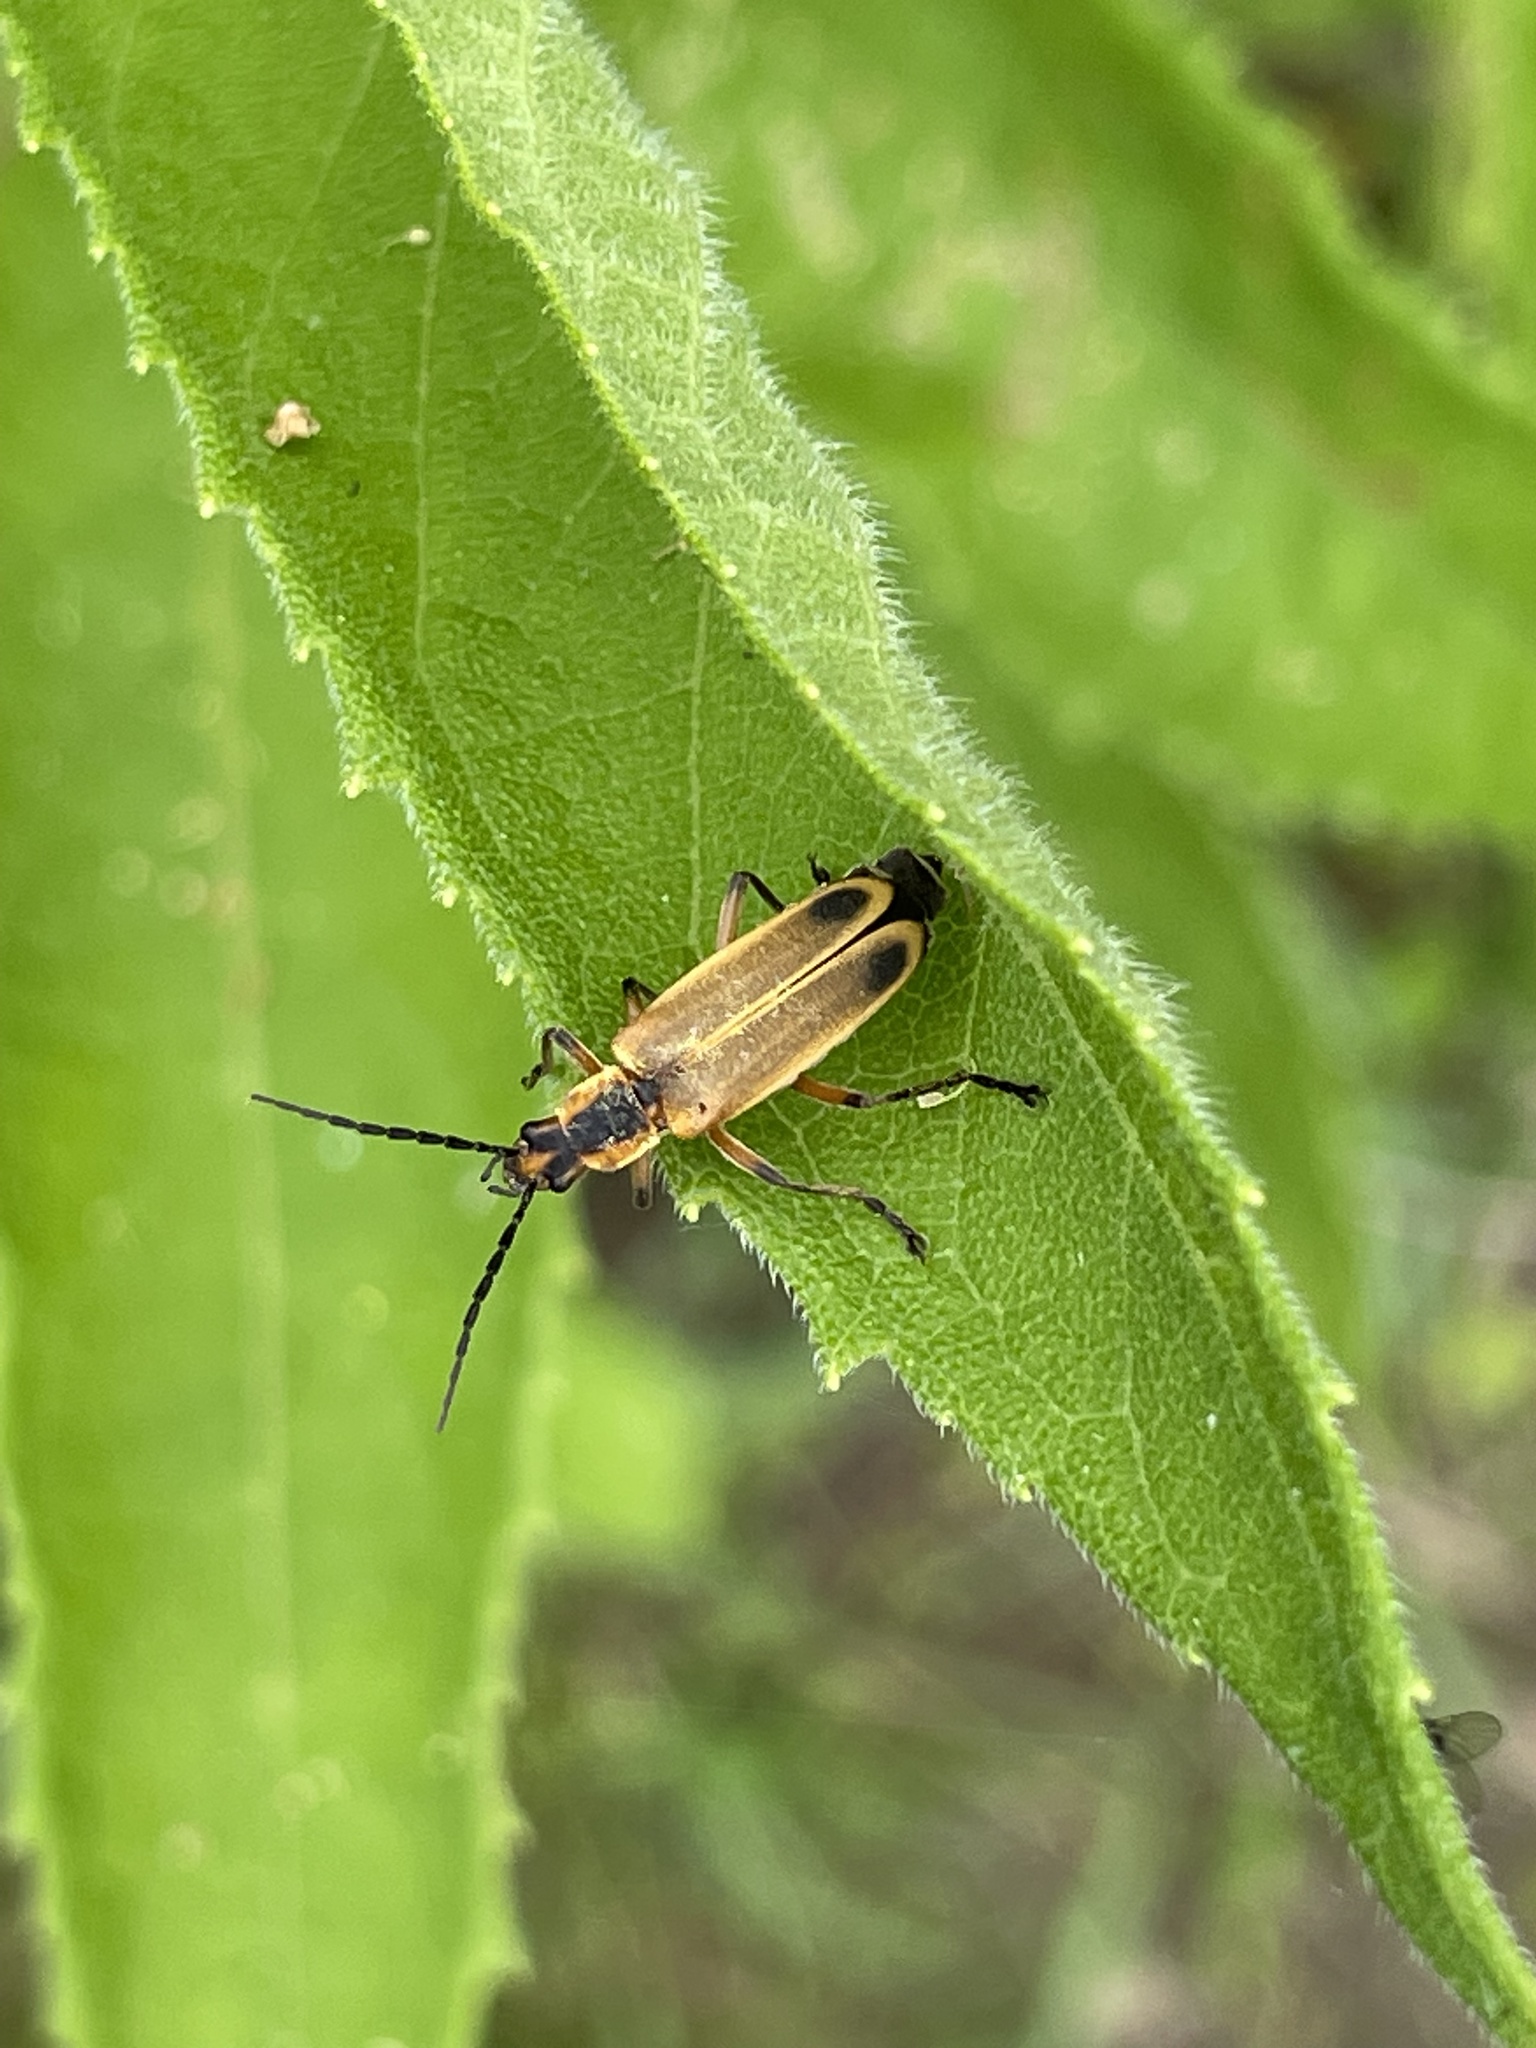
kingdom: Animalia
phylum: Arthropoda
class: Insecta
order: Coleoptera
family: Cantharidae
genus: Chauliognathus
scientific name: Chauliognathus marginatus
